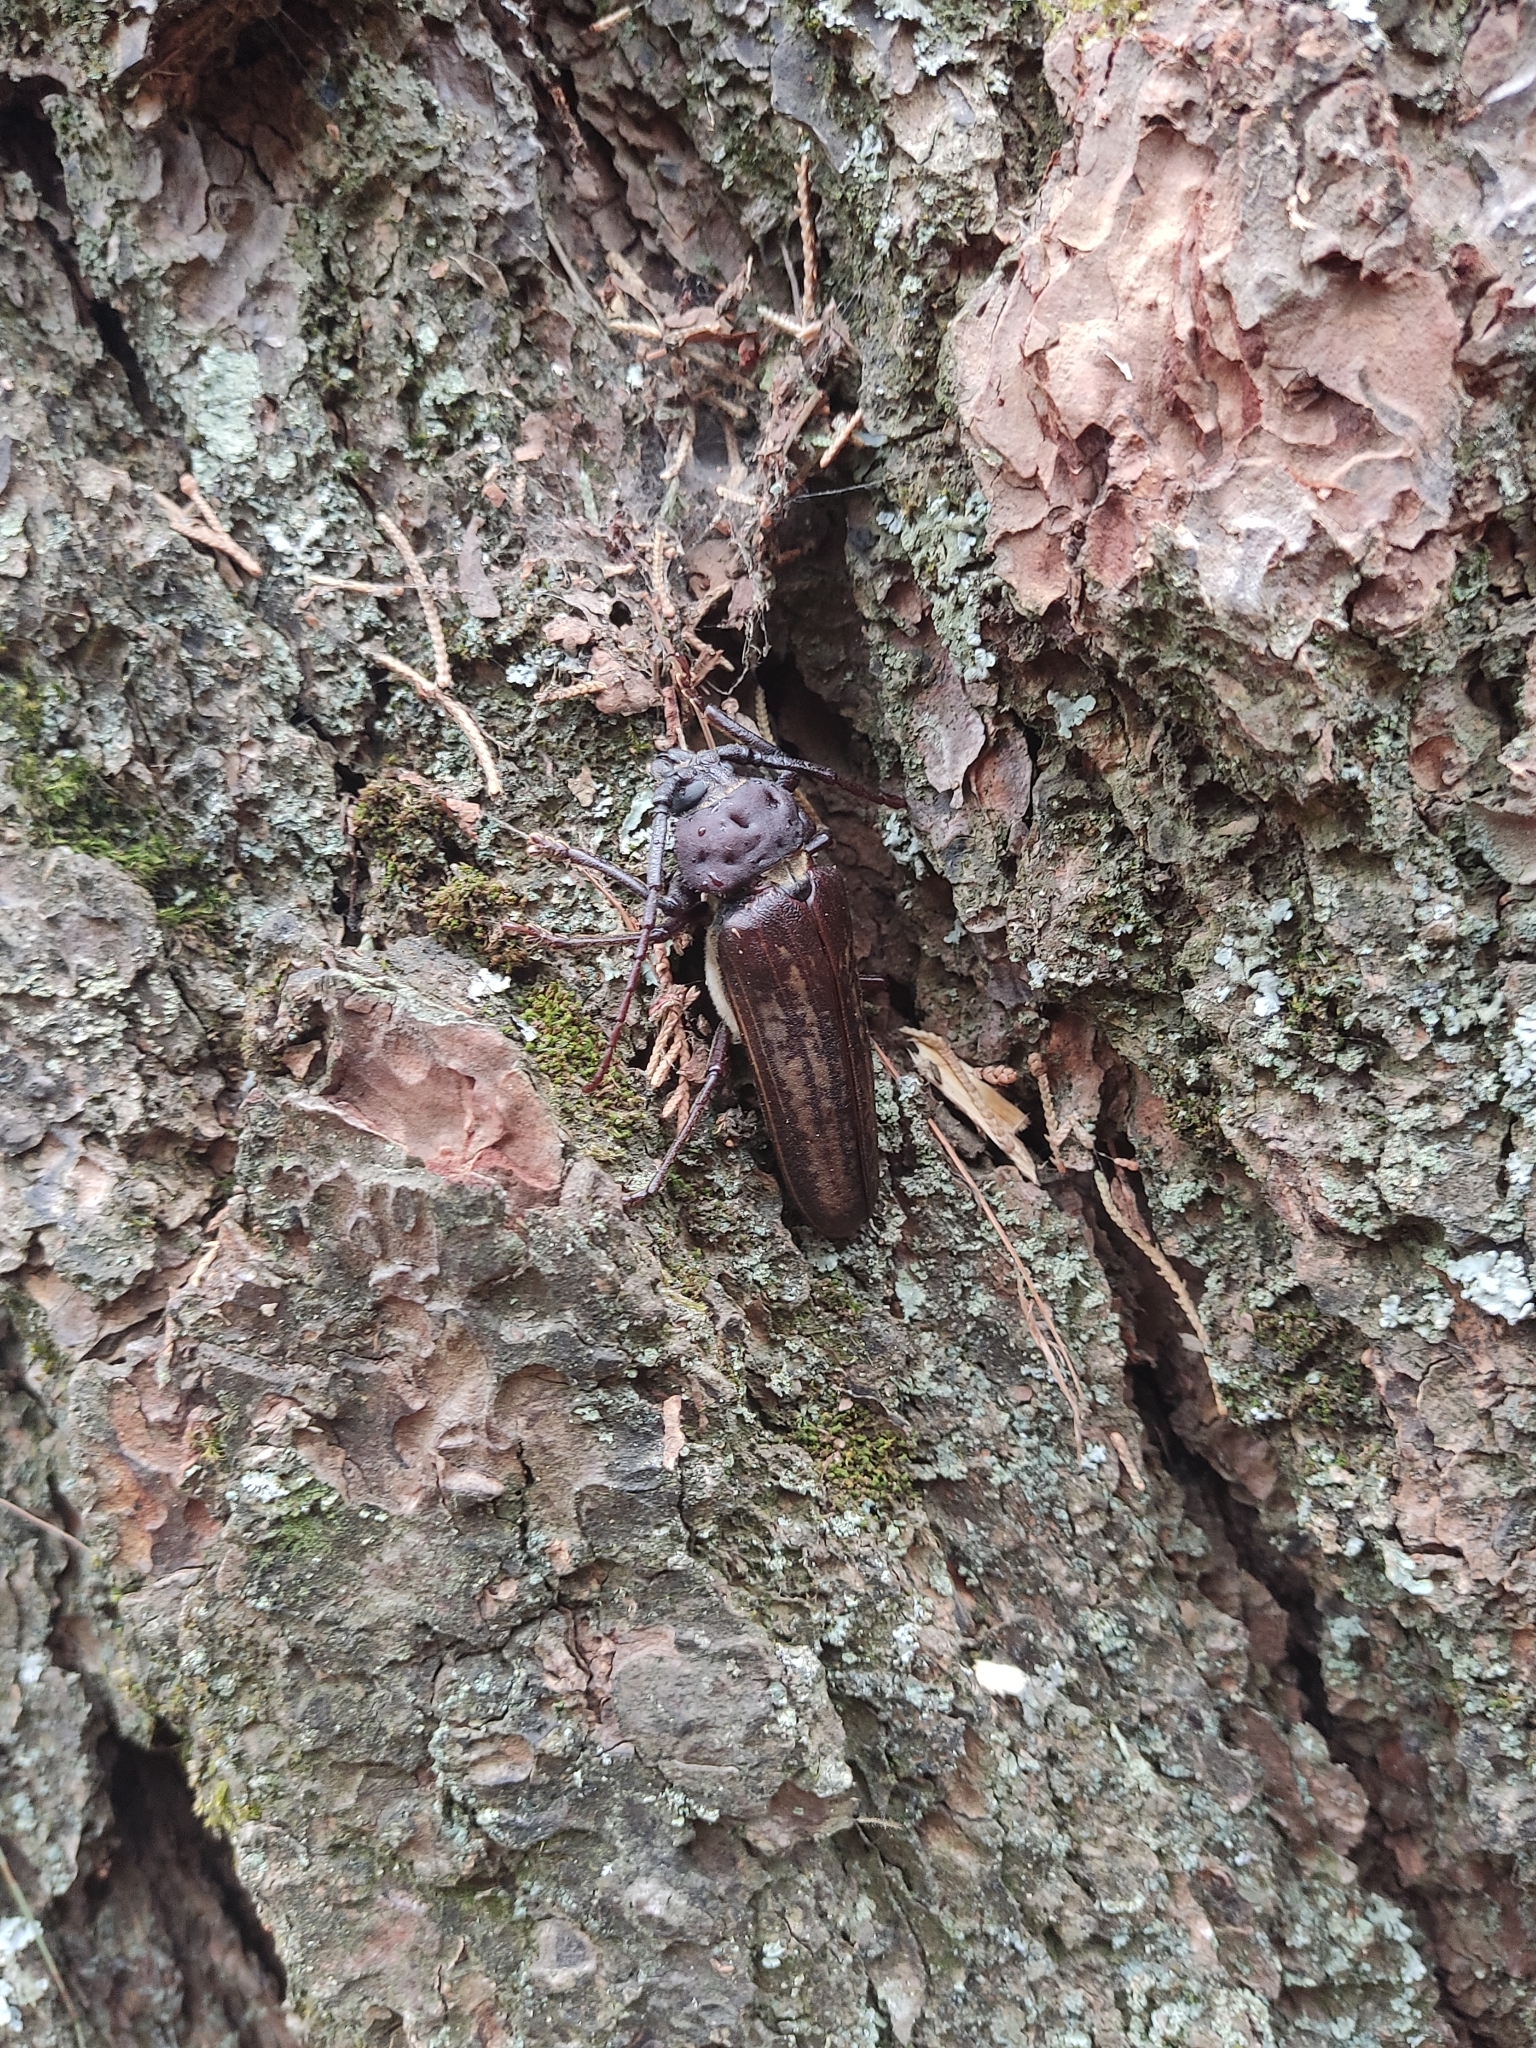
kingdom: Animalia
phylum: Arthropoda
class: Insecta
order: Coleoptera
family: Cerambycidae
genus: Trichocnemis
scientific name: Trichocnemis spiculatus
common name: Long-horned beetle
